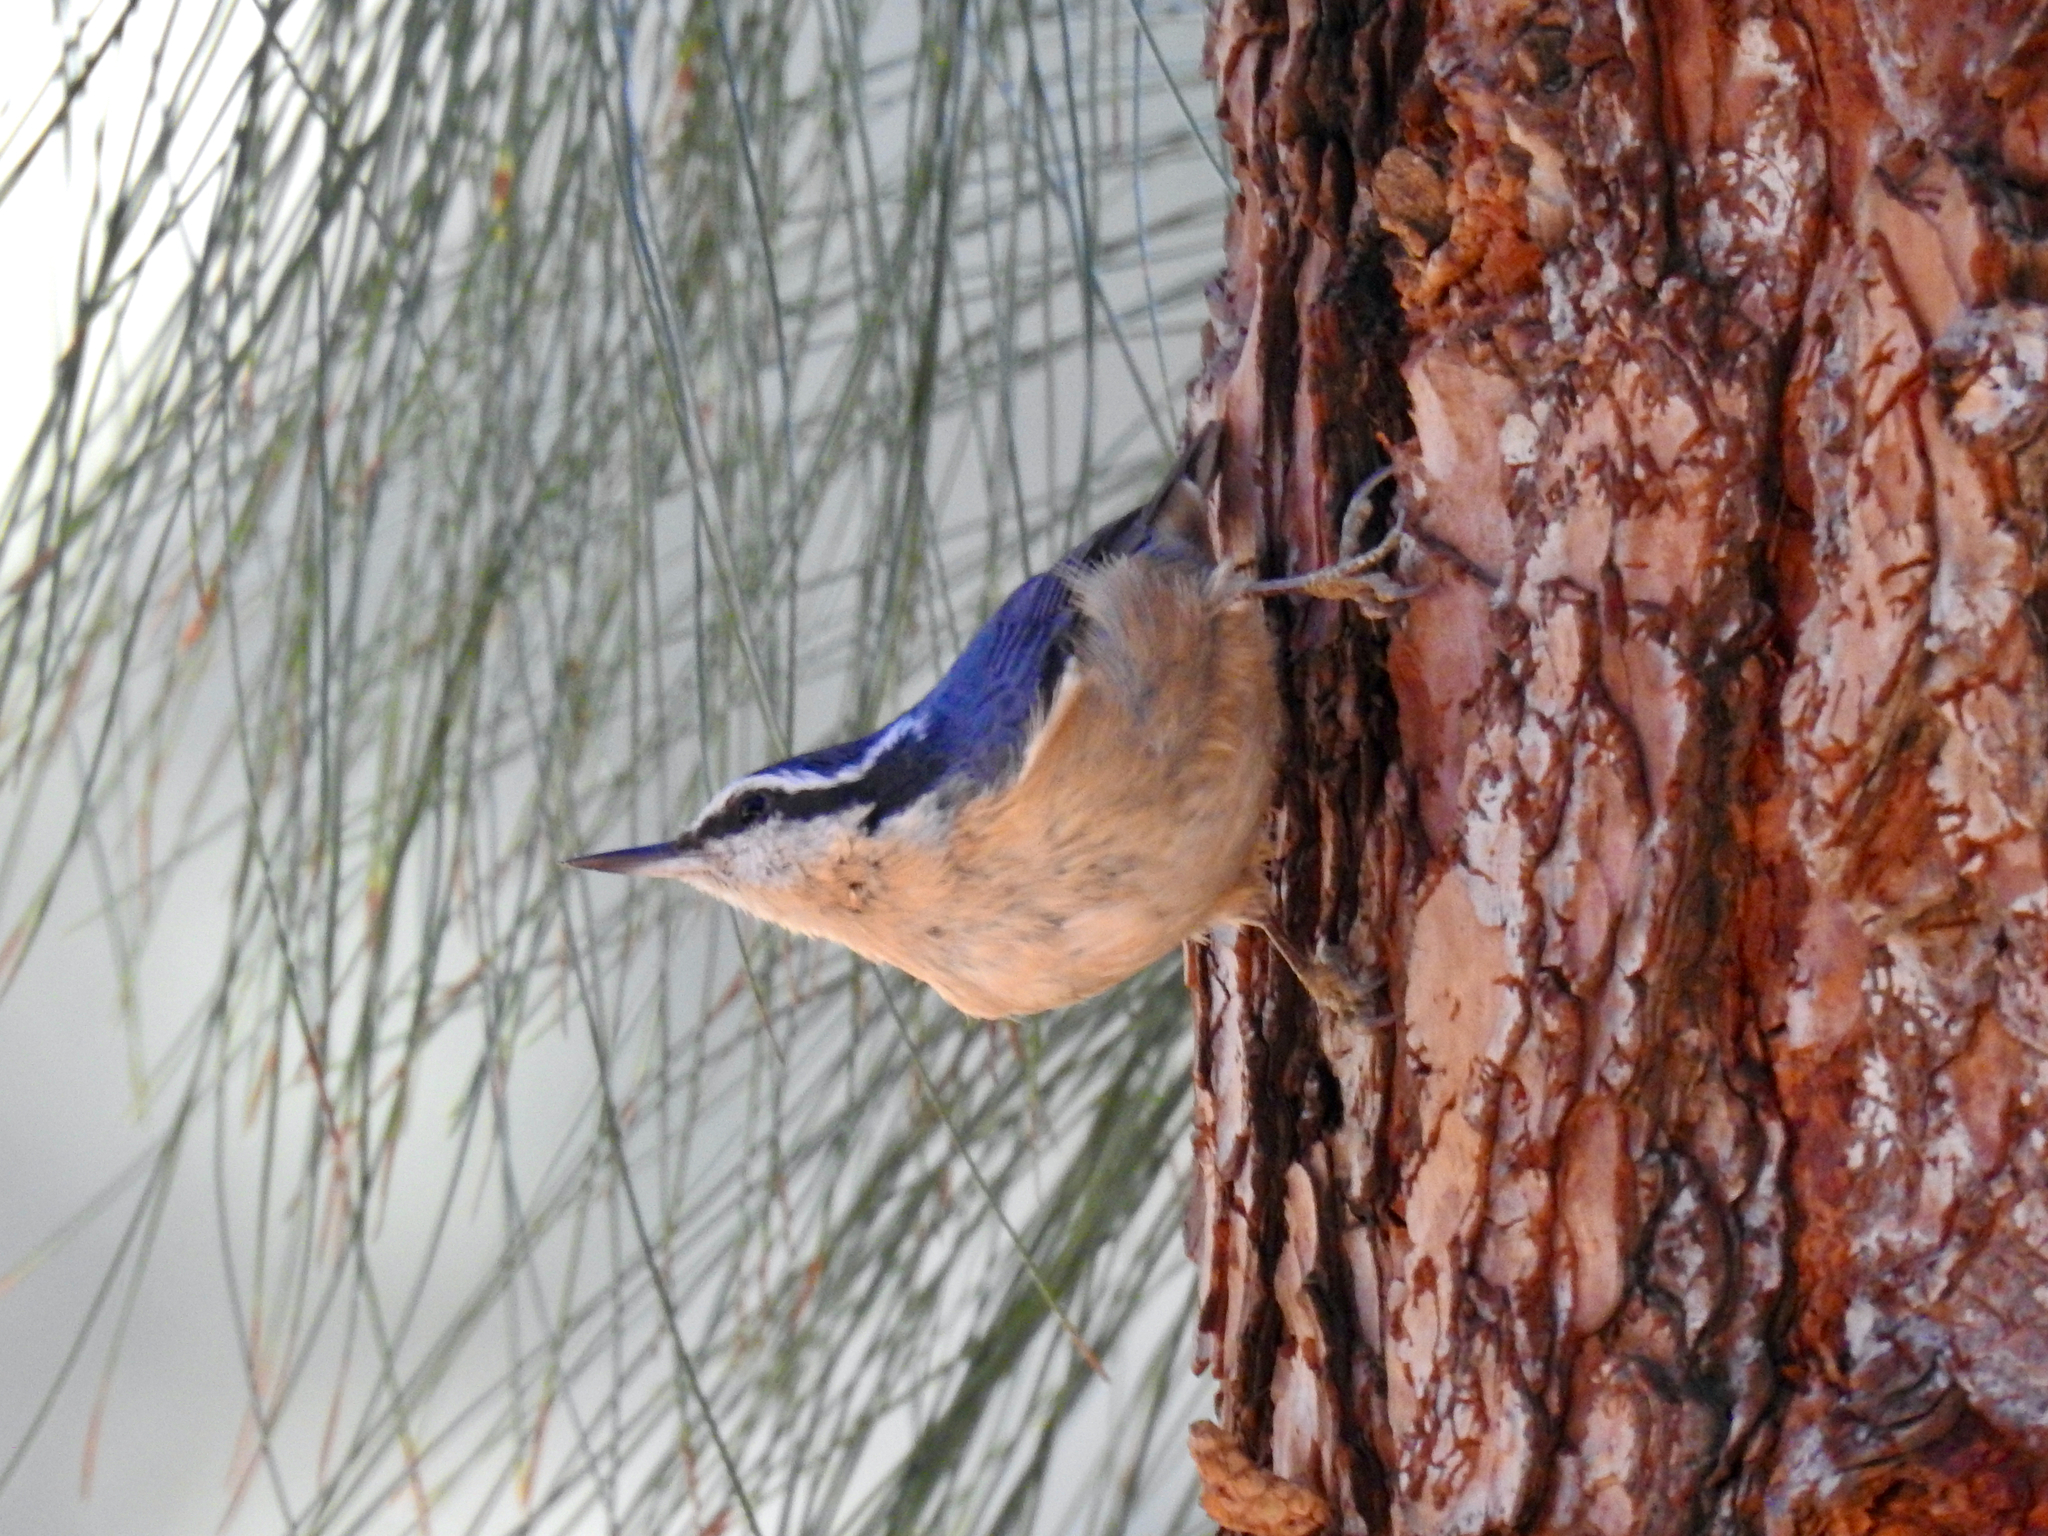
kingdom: Animalia
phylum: Chordata
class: Aves
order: Passeriformes
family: Sittidae
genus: Sitta
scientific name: Sitta canadensis
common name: Red-breasted nuthatch
